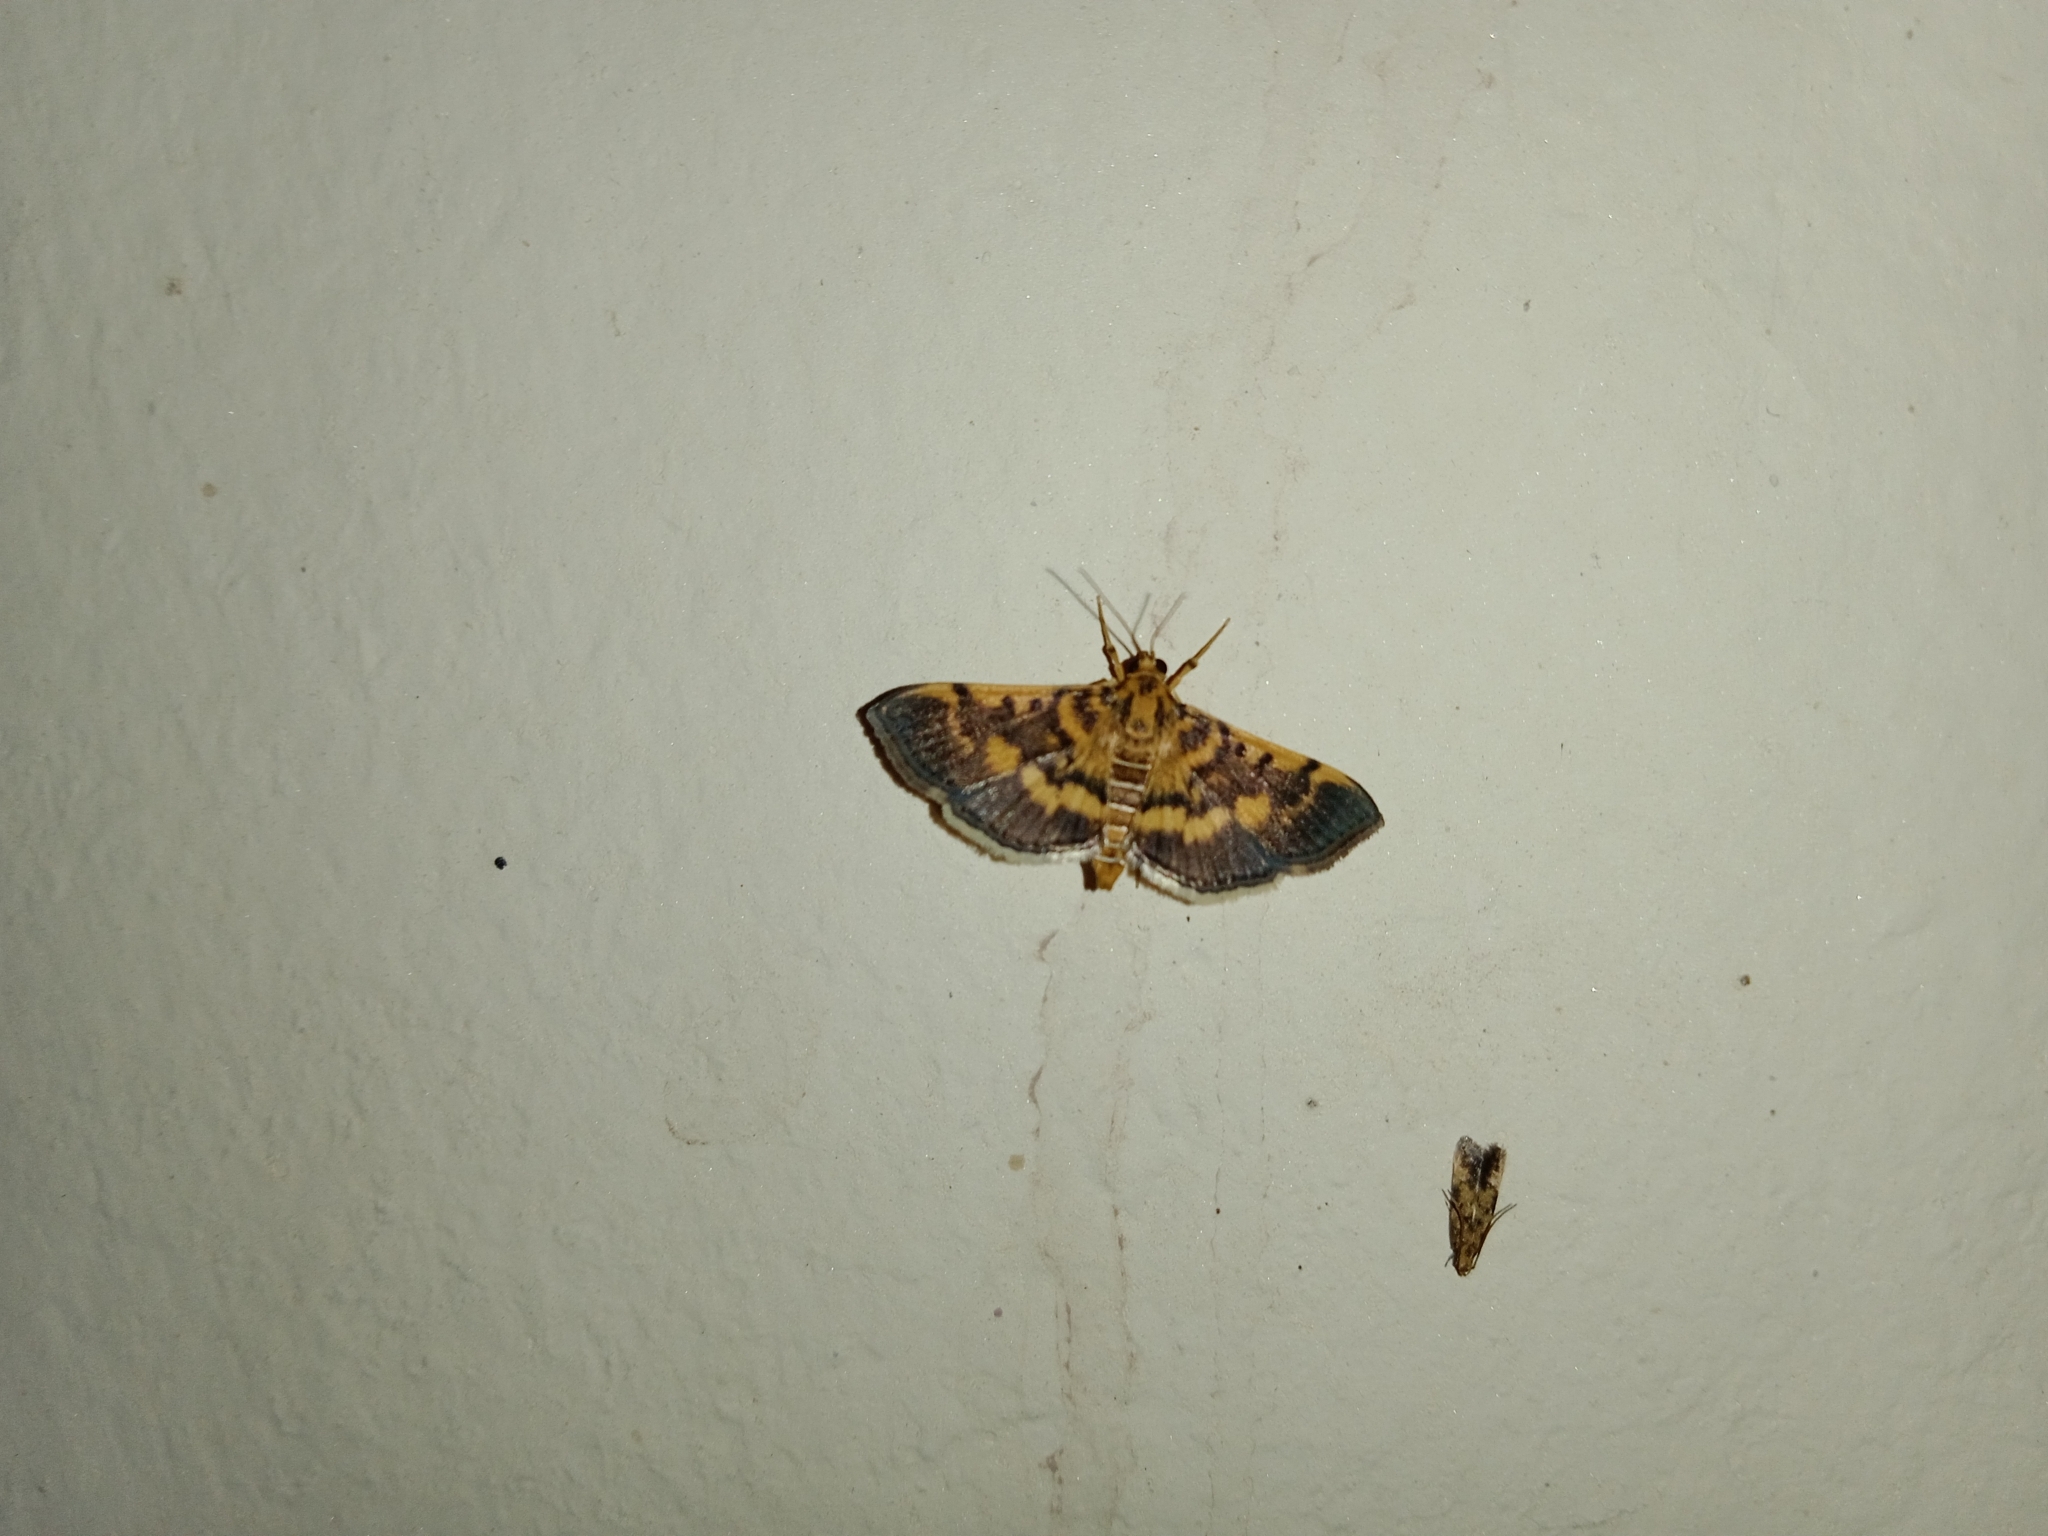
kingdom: Animalia
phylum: Arthropoda
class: Insecta
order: Lepidoptera
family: Crambidae
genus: Omiodes
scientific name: Omiodes diemenalis
